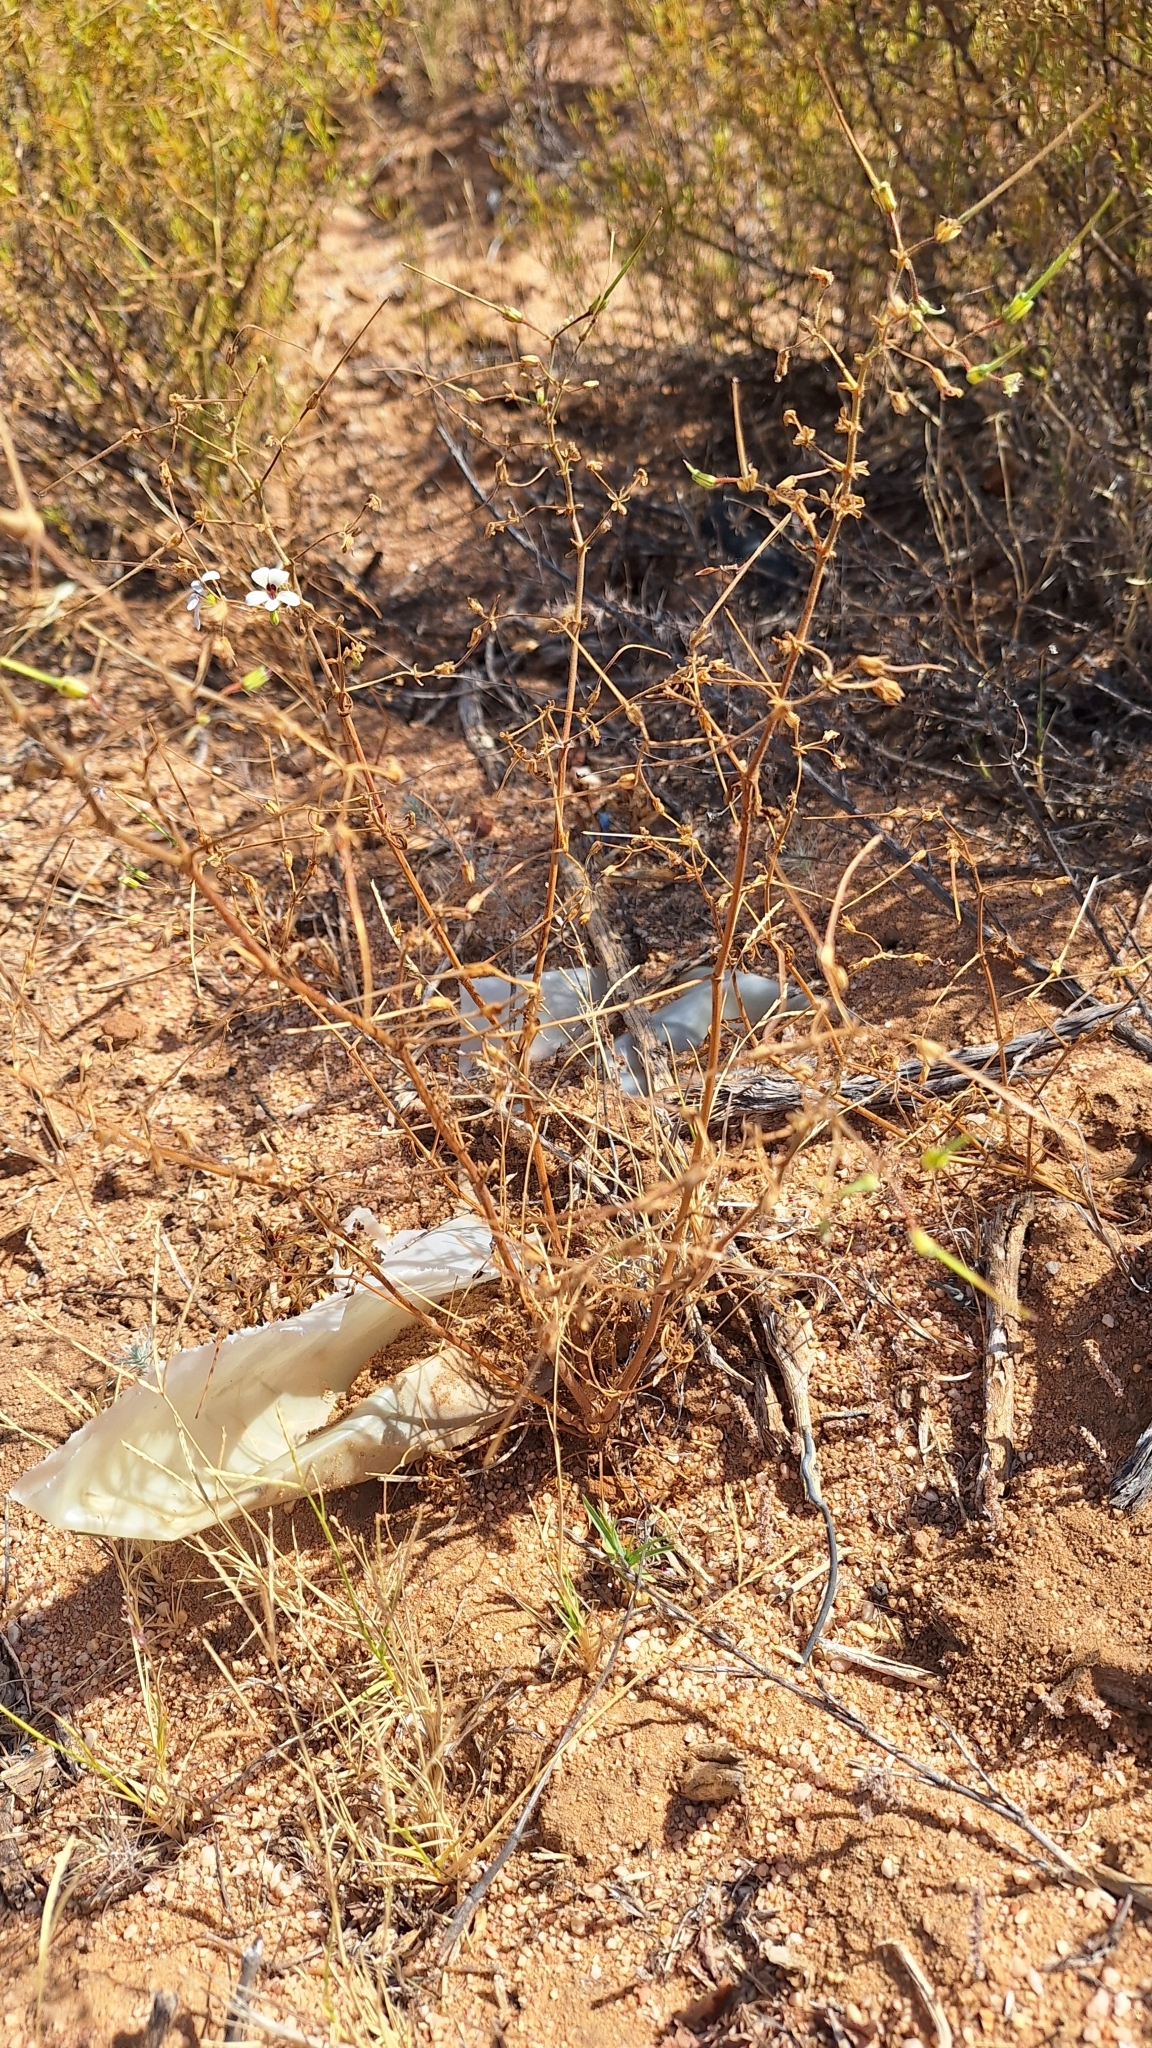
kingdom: Plantae
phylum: Tracheophyta
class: Magnoliopsida
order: Geraniales
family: Geraniaceae
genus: Pelargonium
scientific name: Pelargonium senecioides
